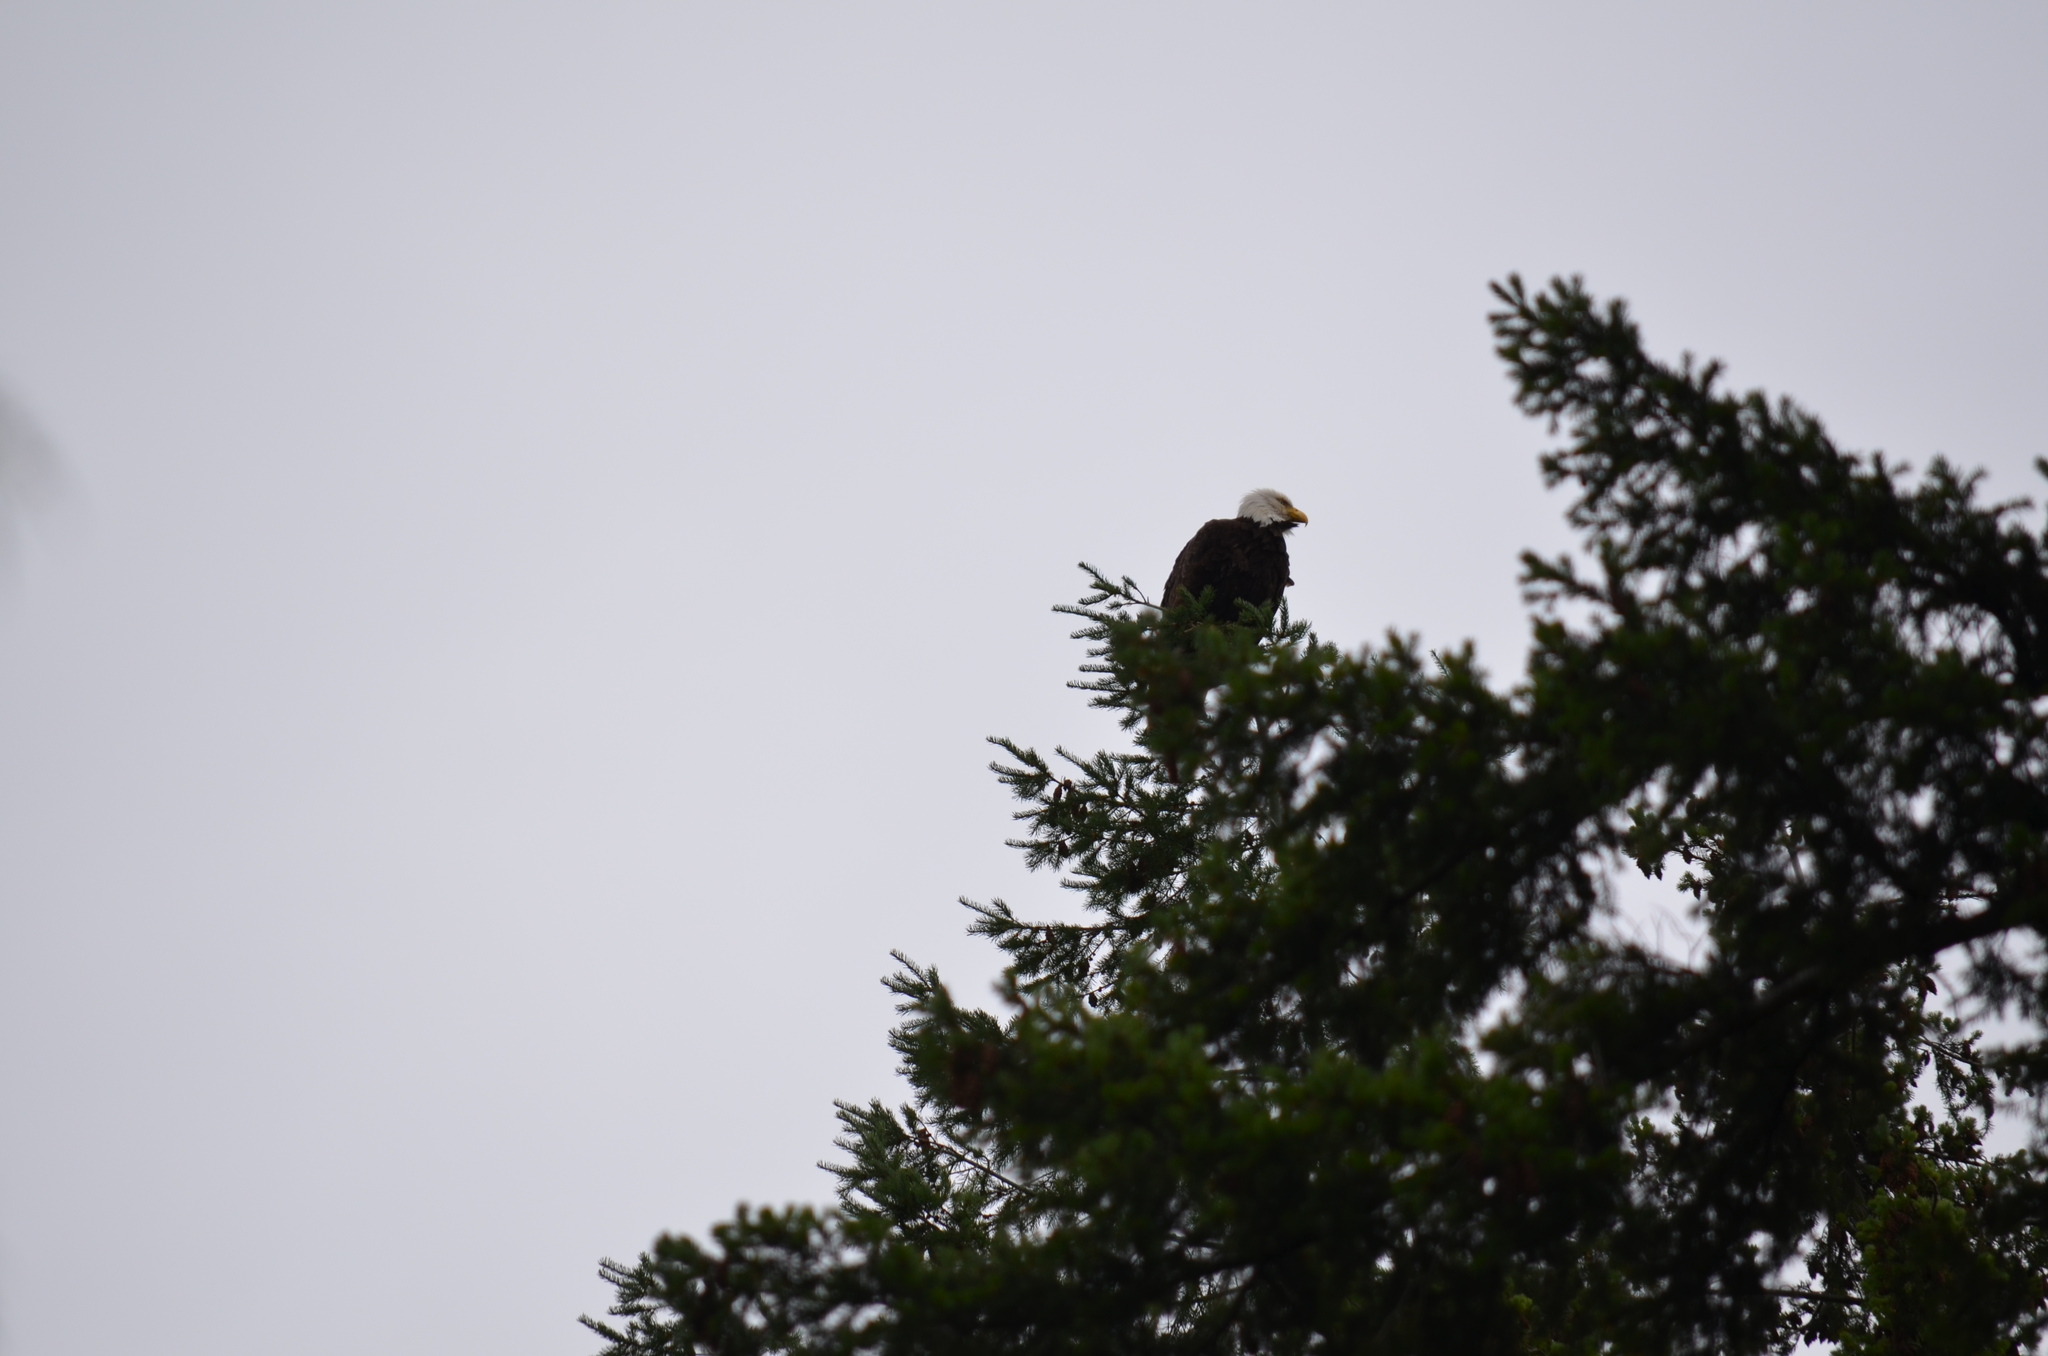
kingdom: Animalia
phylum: Chordata
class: Aves
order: Accipitriformes
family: Accipitridae
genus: Haliaeetus
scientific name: Haliaeetus leucocephalus
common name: Bald eagle
